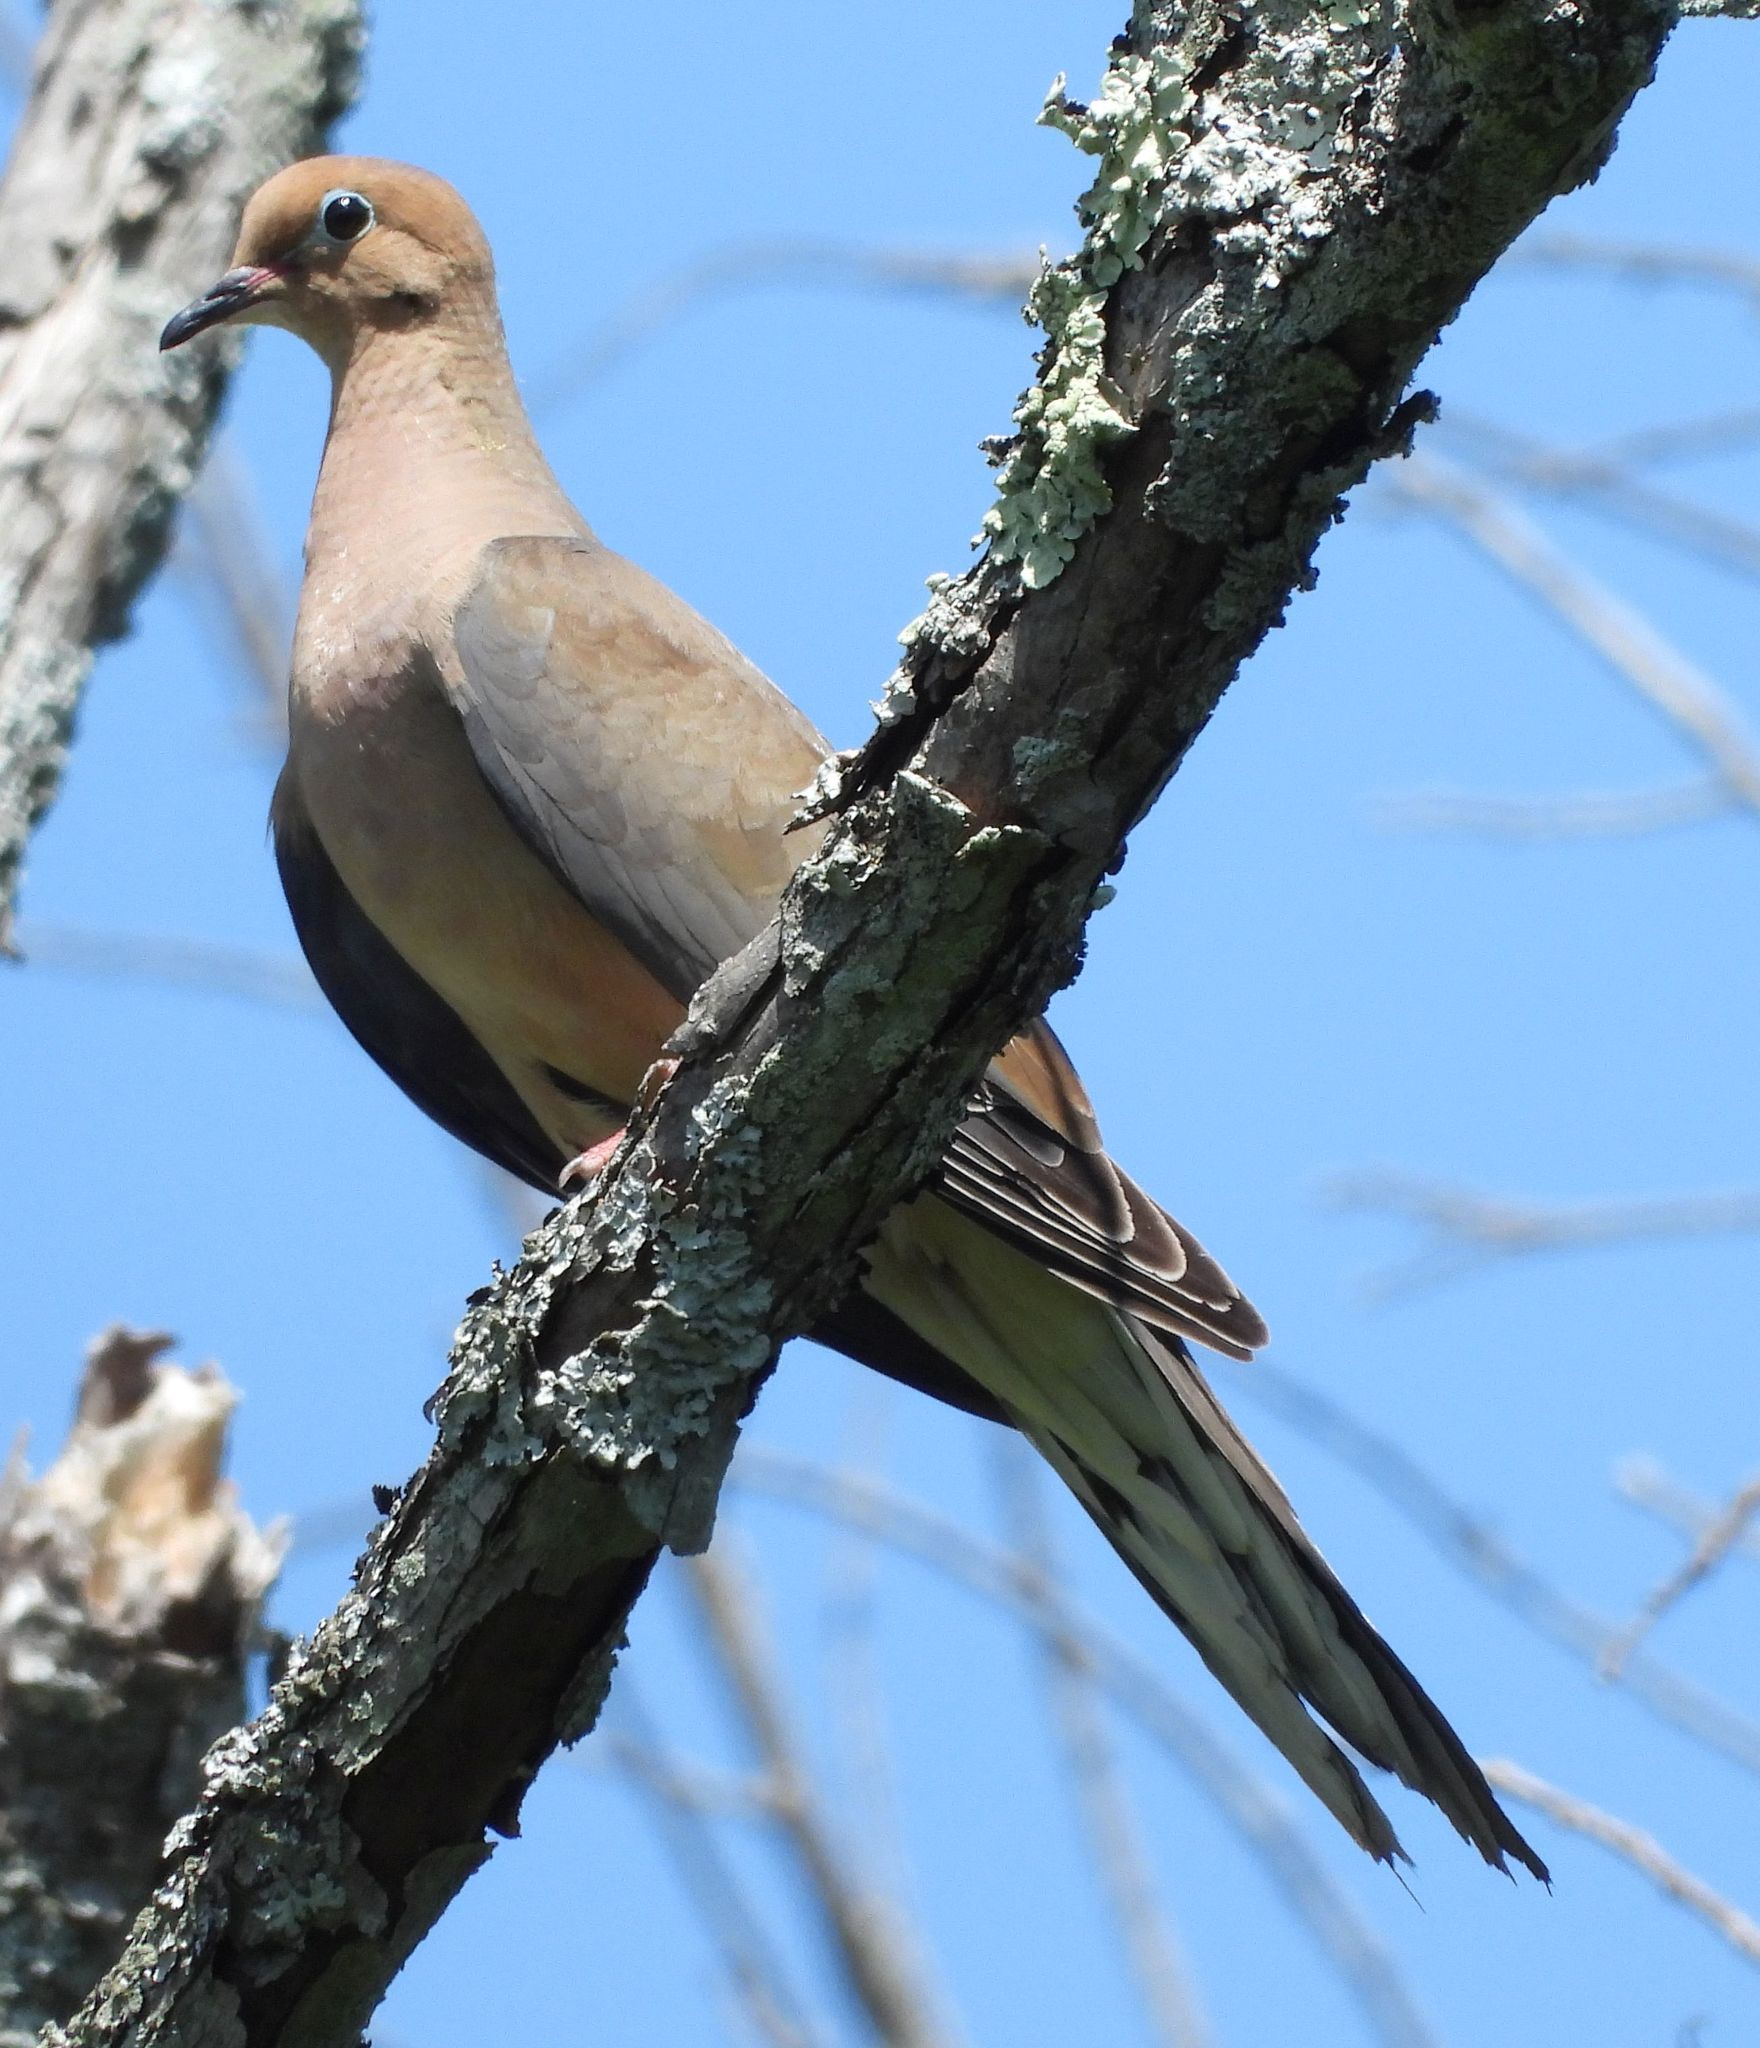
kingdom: Animalia
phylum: Chordata
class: Aves
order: Columbiformes
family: Columbidae
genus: Zenaida
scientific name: Zenaida macroura
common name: Mourning dove
